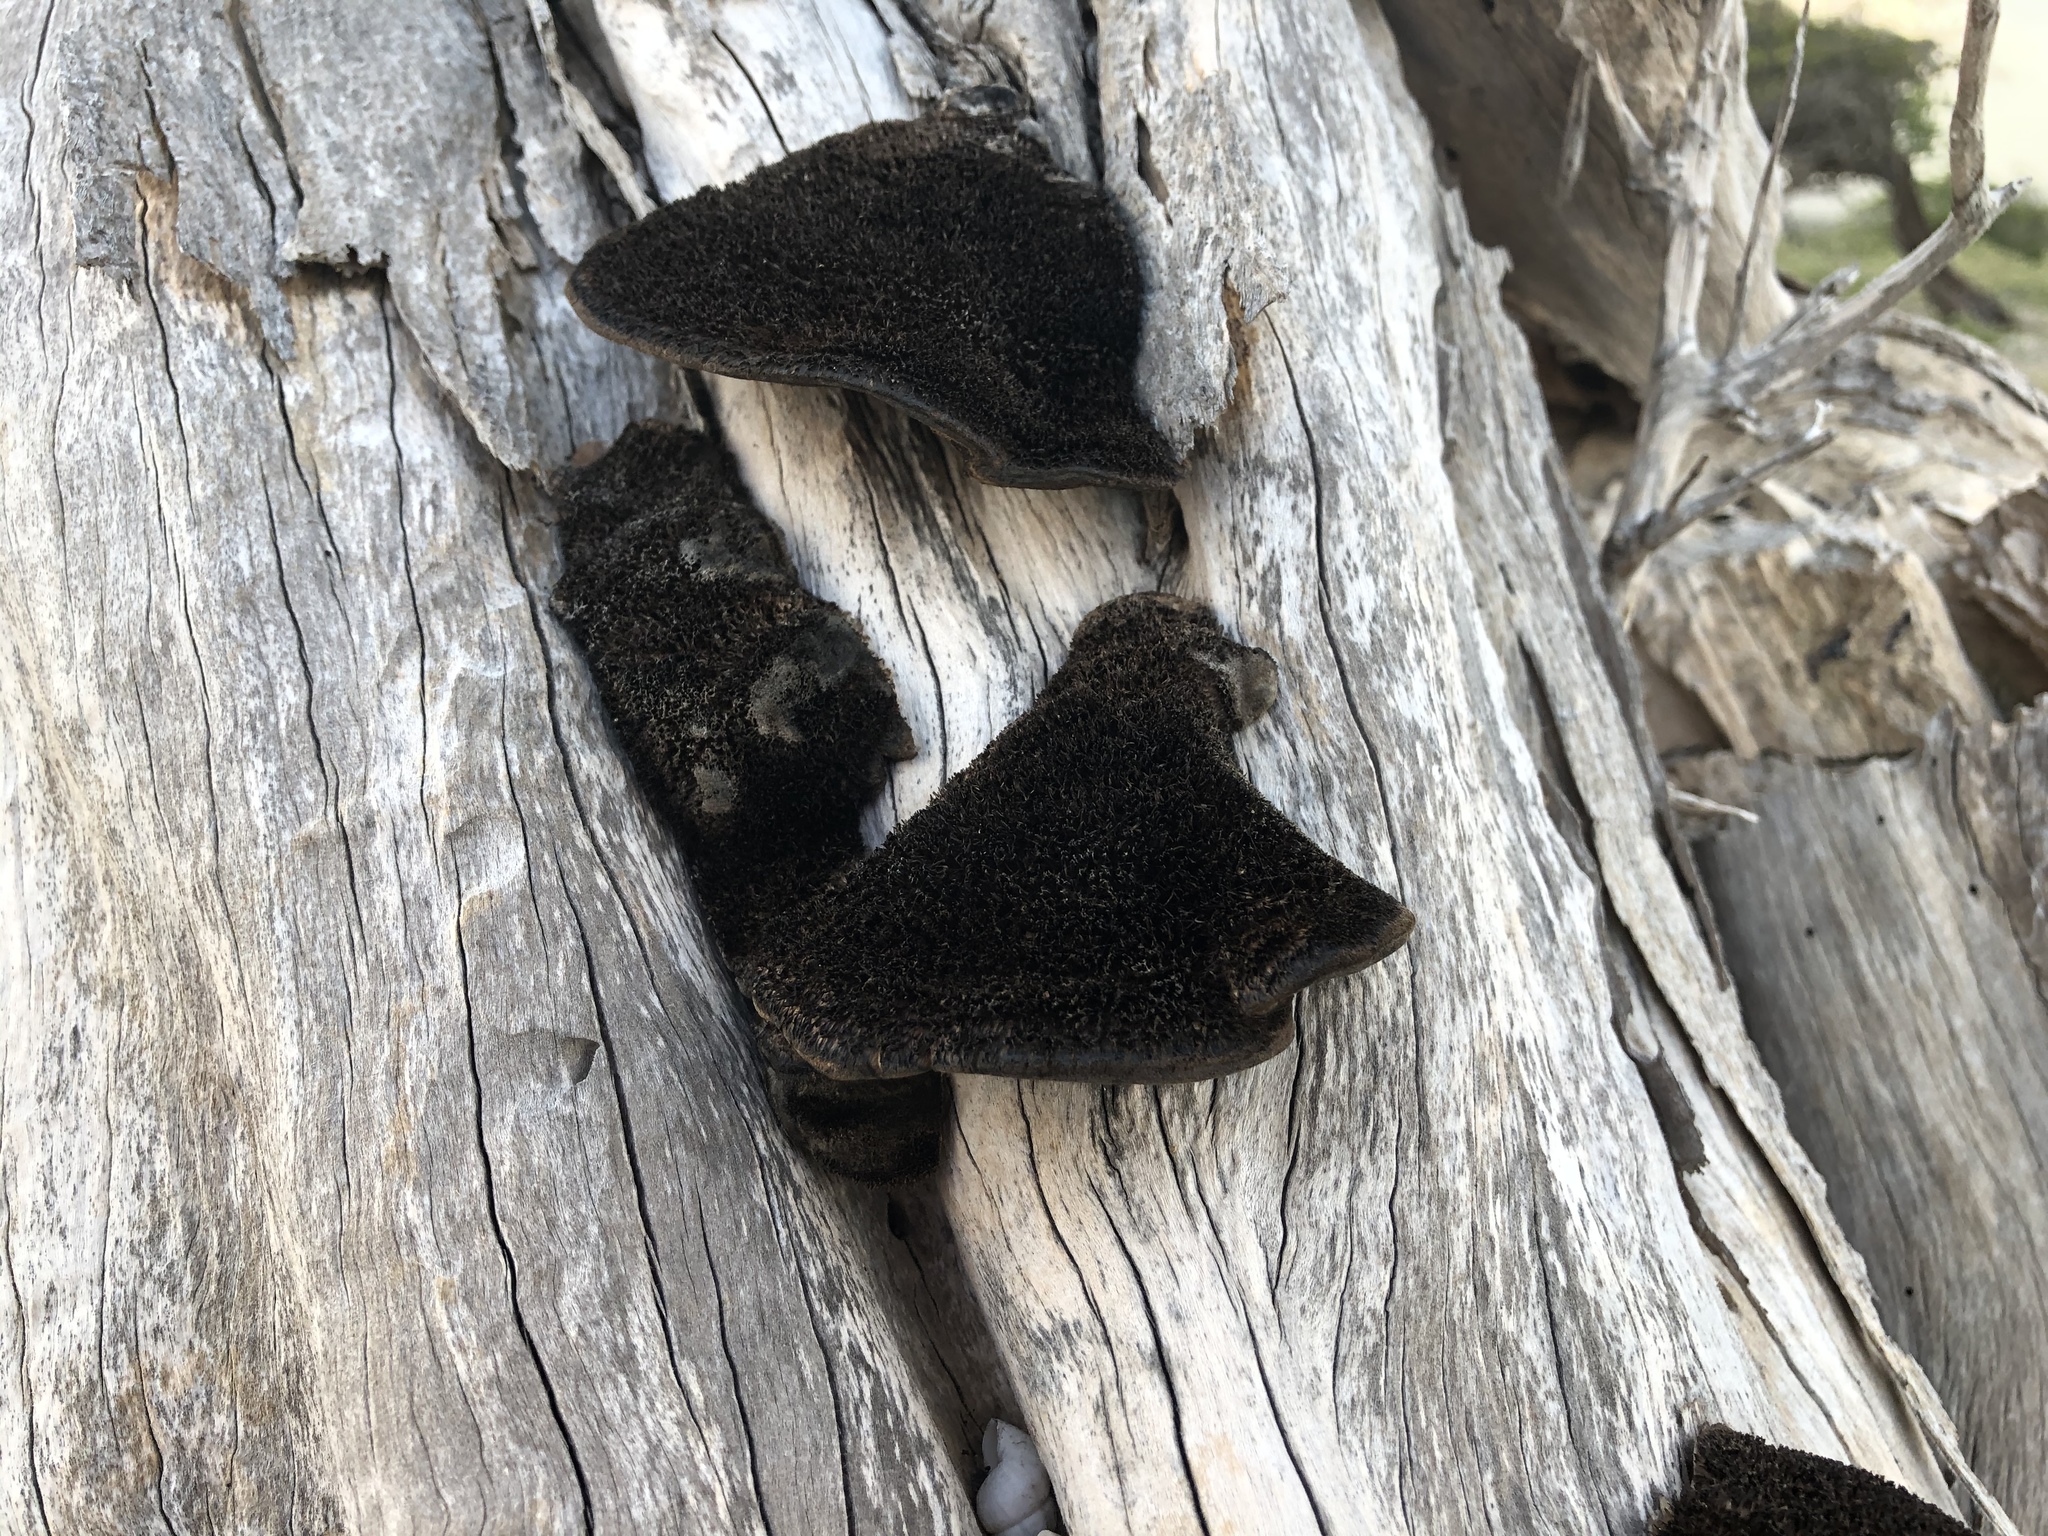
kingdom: Fungi
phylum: Basidiomycota
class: Agaricomycetes
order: Polyporales
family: Cerrenaceae
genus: Cerrena
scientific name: Cerrena hydnoides
